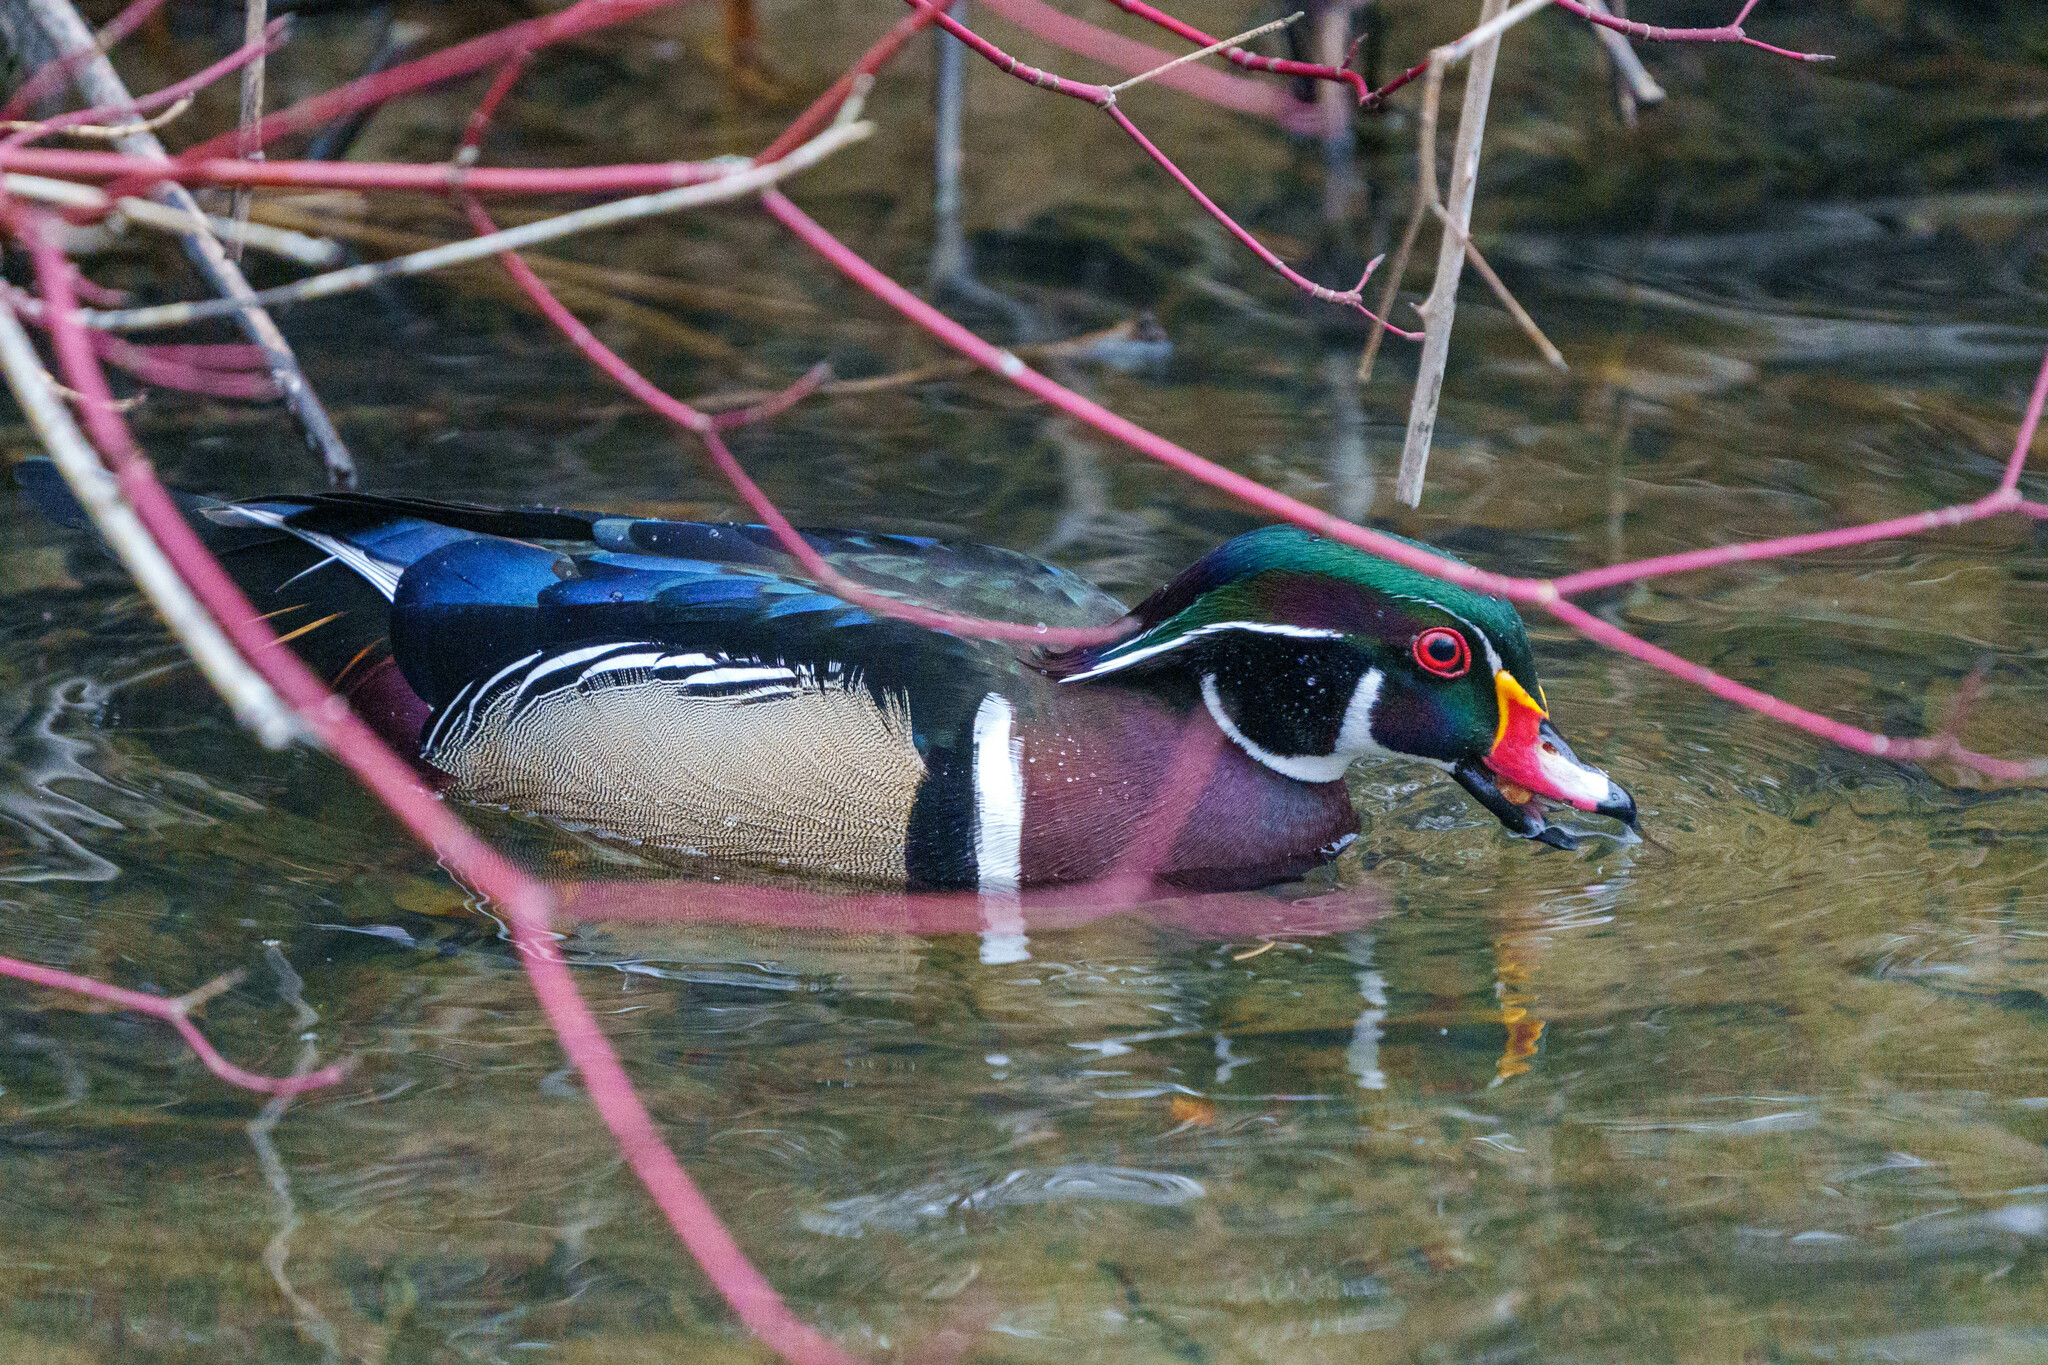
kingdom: Animalia
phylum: Chordata
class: Aves
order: Anseriformes
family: Anatidae
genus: Aix
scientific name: Aix sponsa
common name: Wood duck
